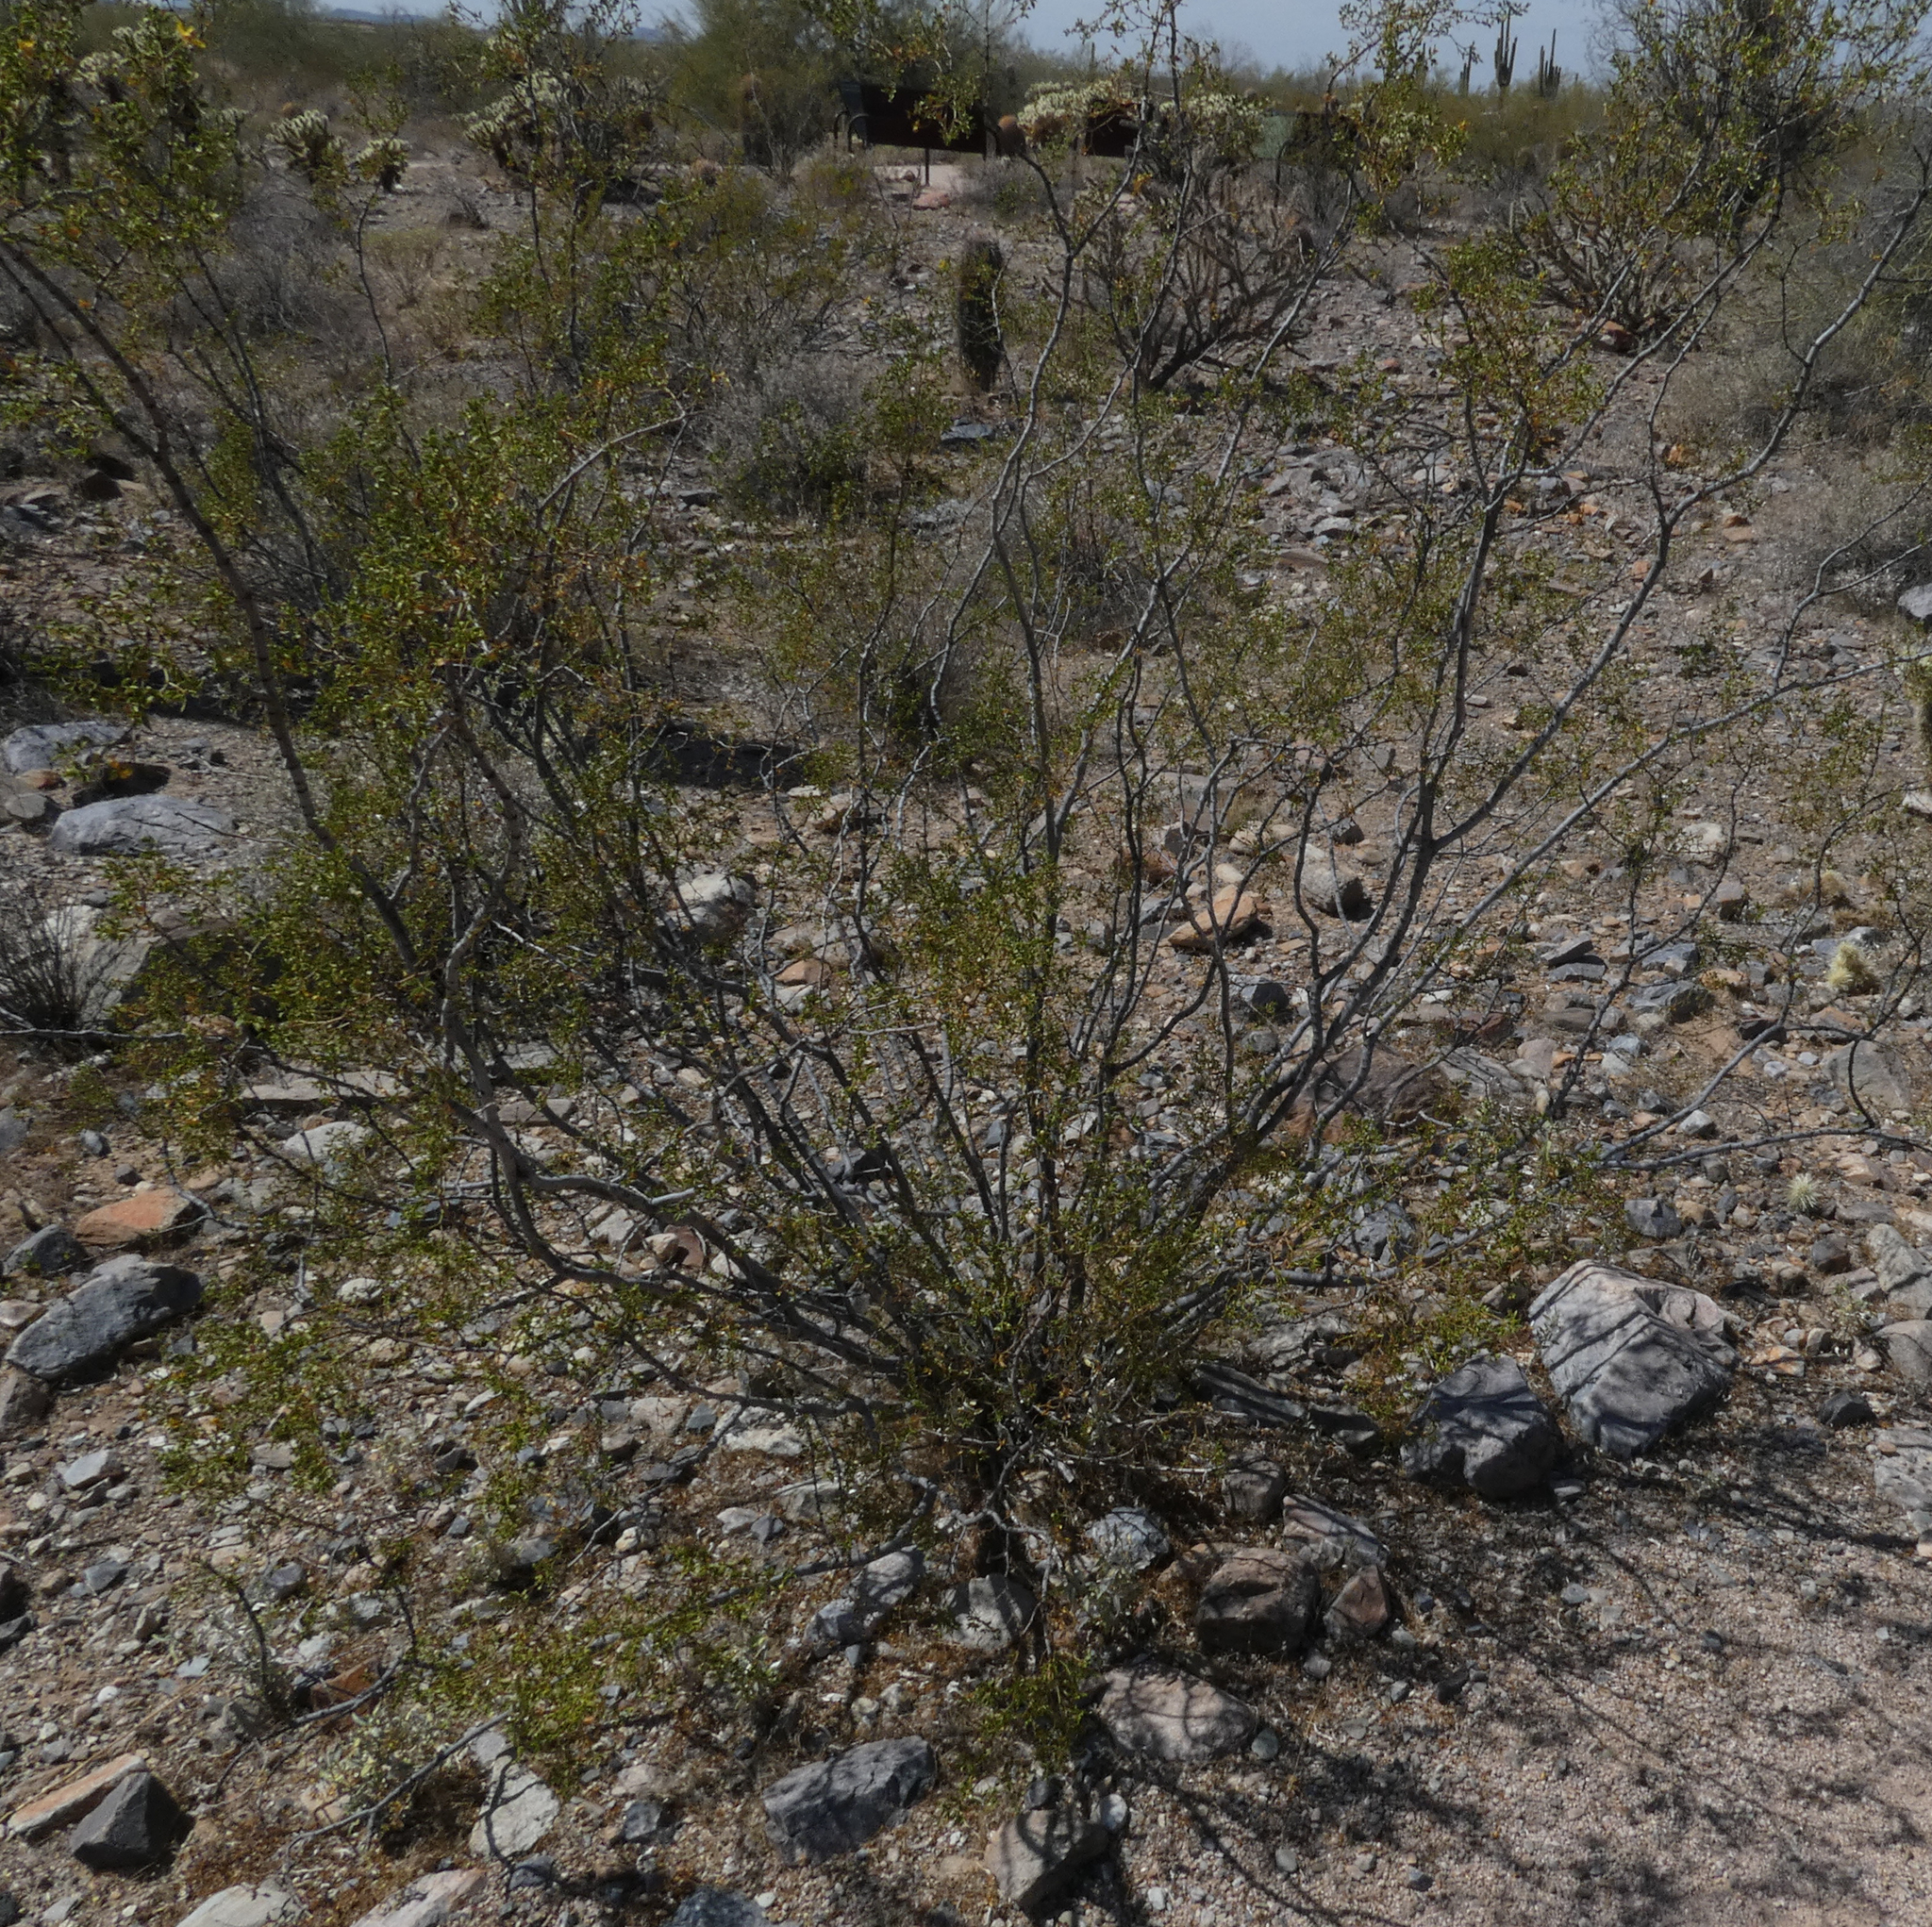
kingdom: Plantae
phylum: Tracheophyta
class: Magnoliopsida
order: Zygophyllales
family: Zygophyllaceae
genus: Larrea
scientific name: Larrea tridentata
